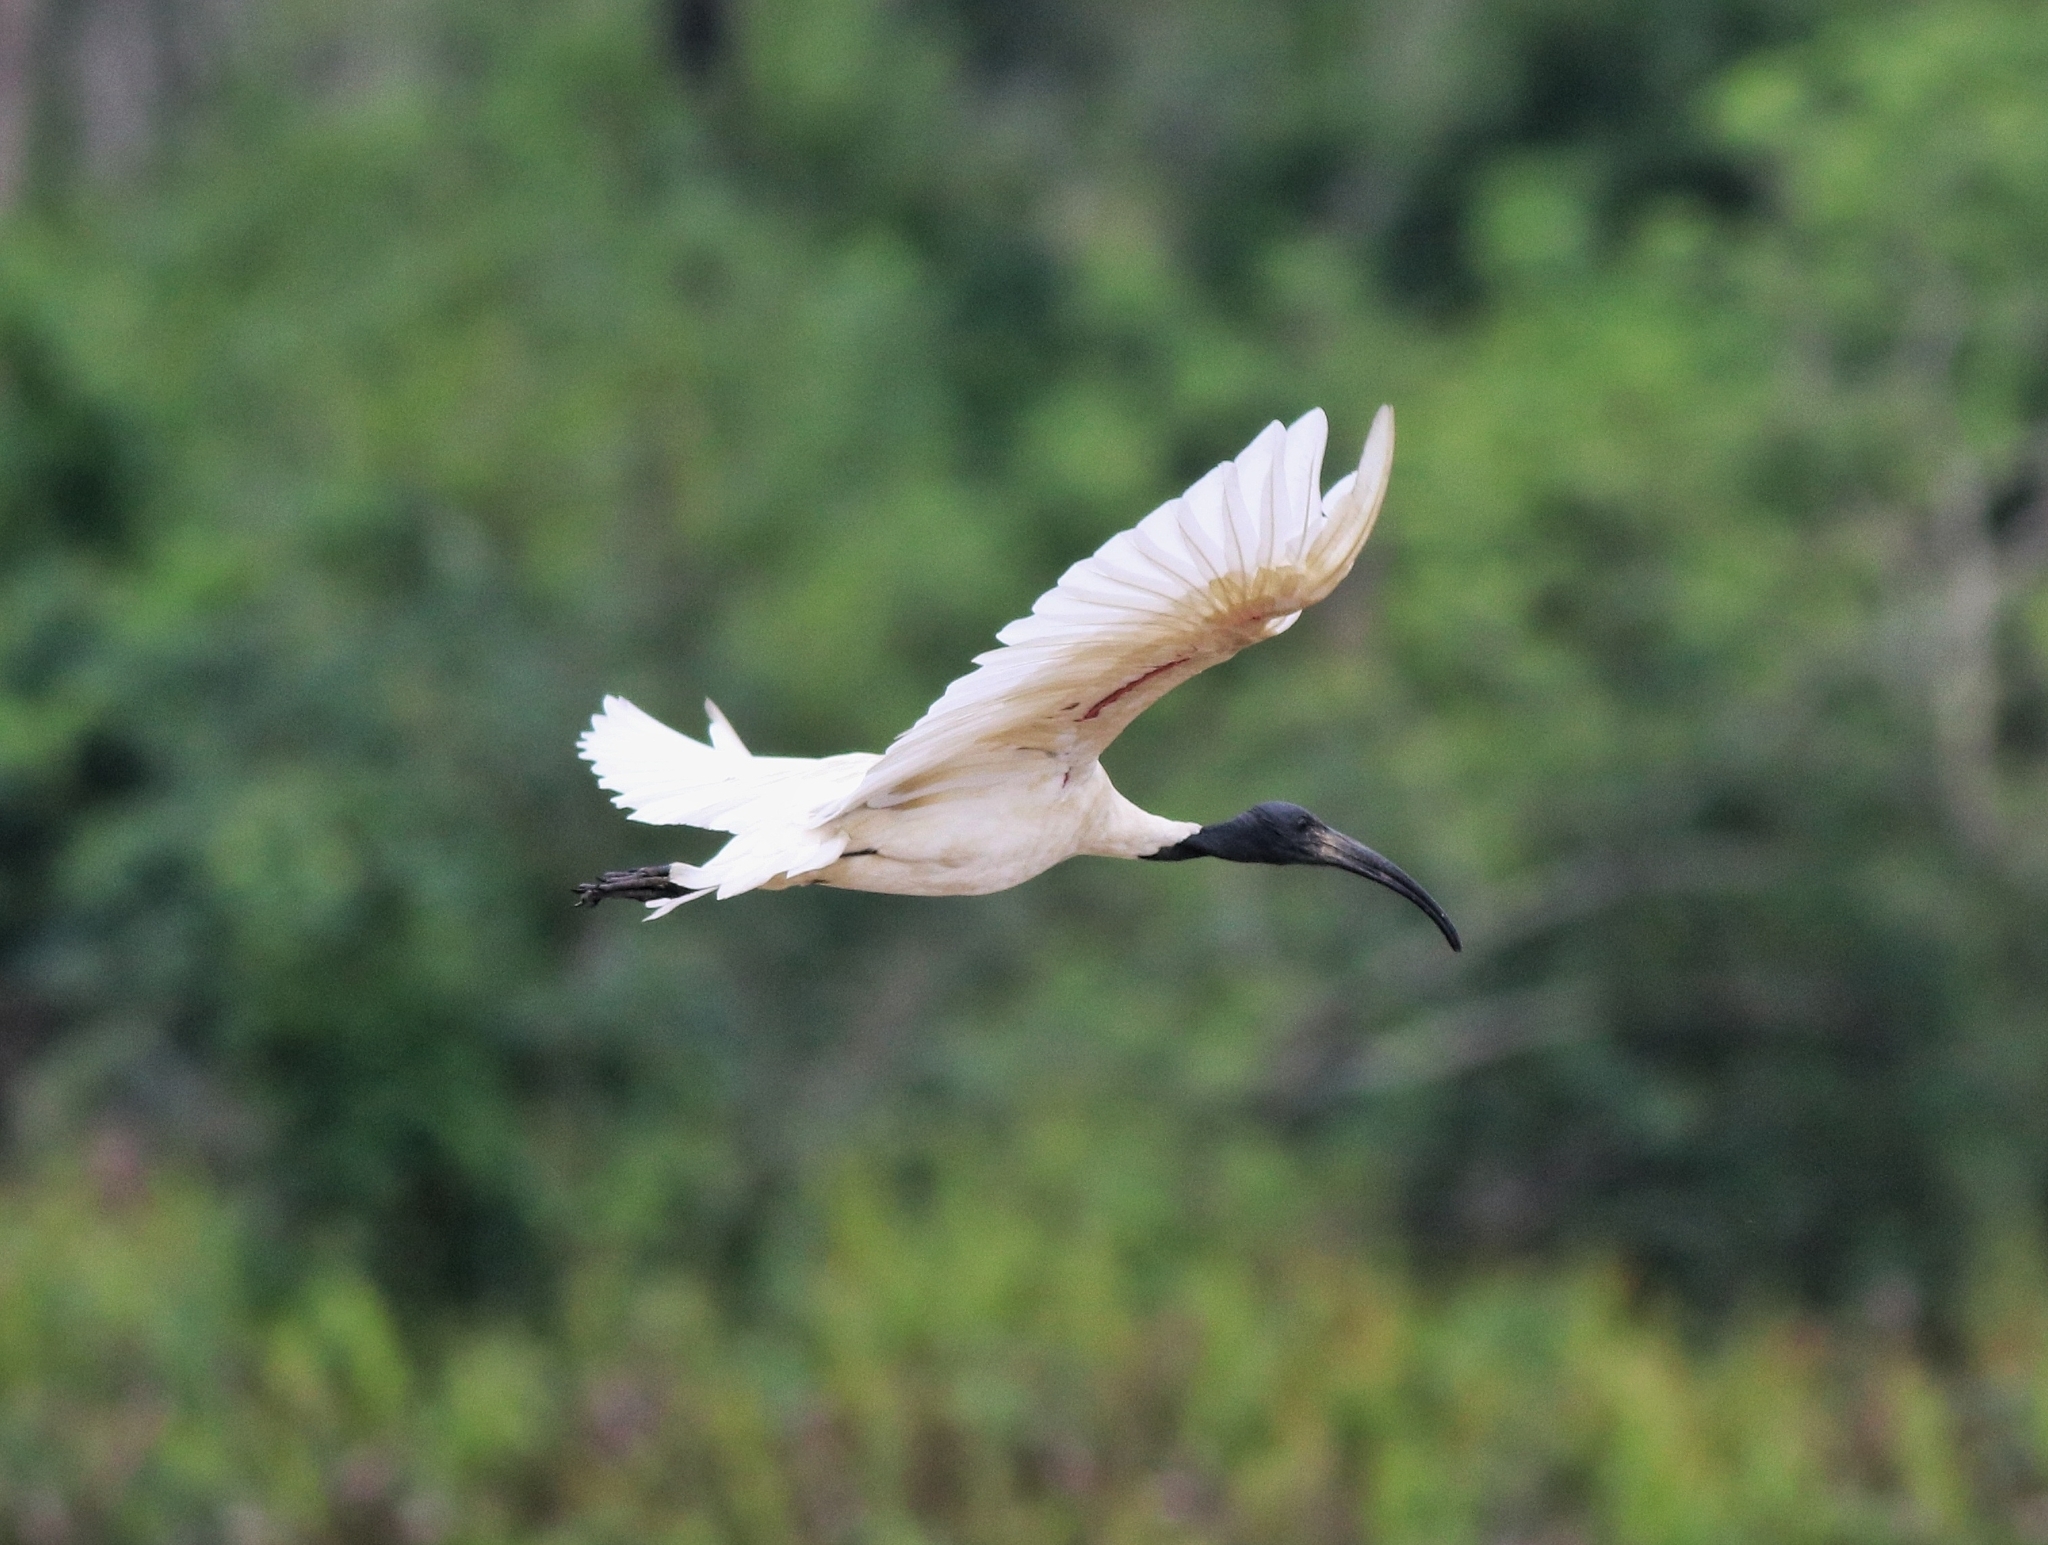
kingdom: Animalia
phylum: Chordata
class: Aves
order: Pelecaniformes
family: Threskiornithidae
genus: Threskiornis
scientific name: Threskiornis melanocephalus
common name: Black-headed ibis
